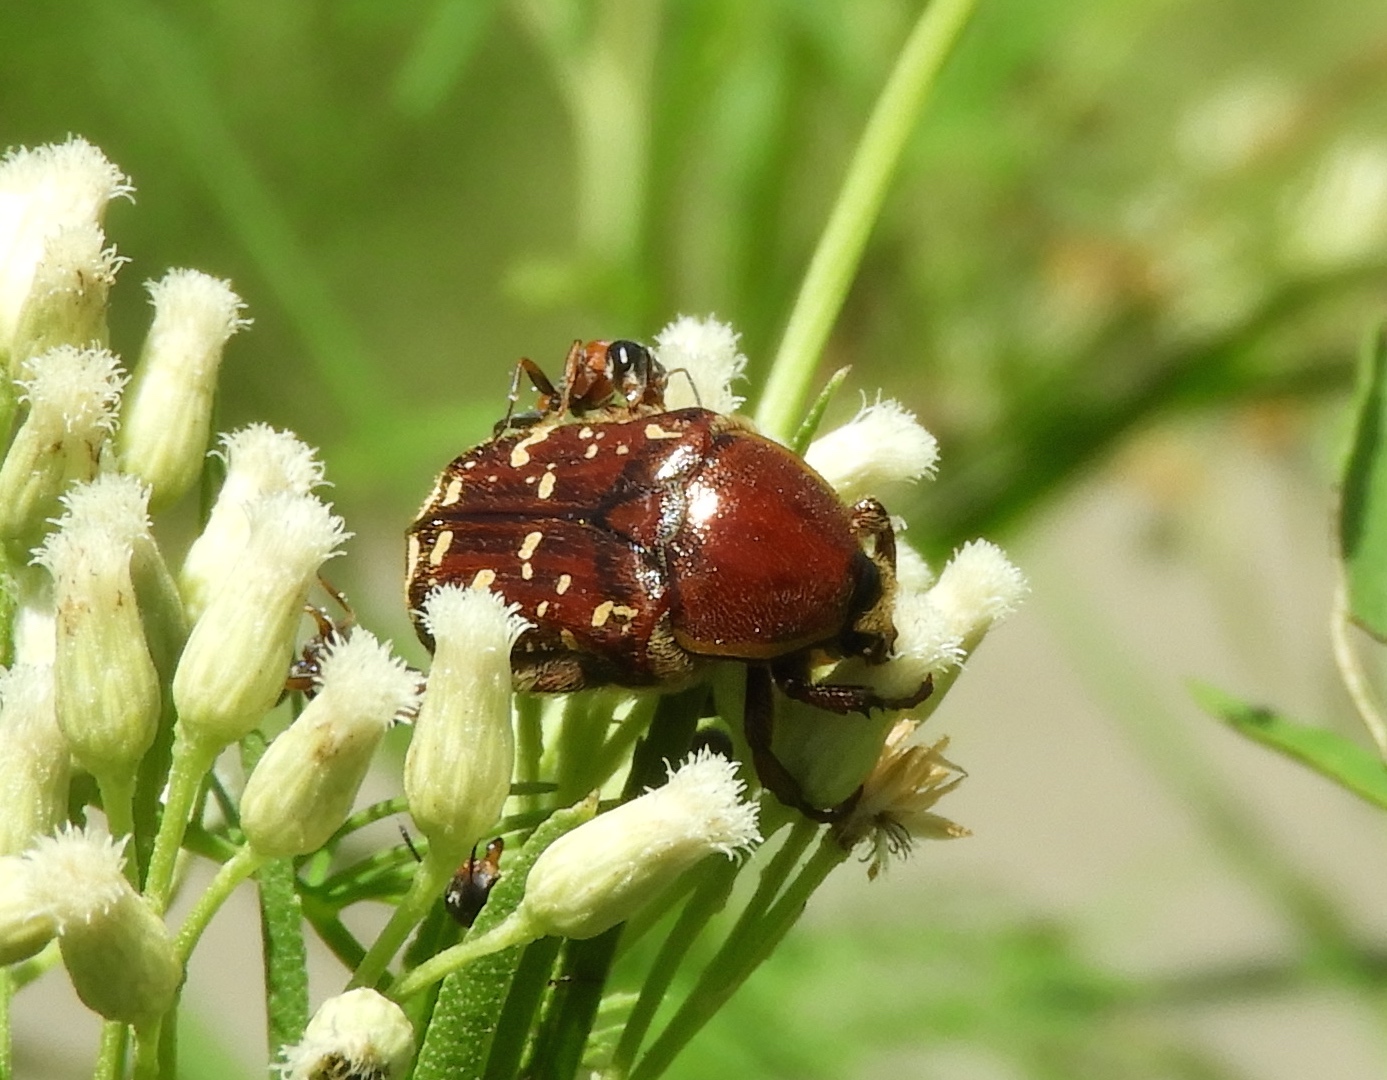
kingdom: Animalia
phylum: Arthropoda
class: Insecta
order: Coleoptera
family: Scarabaeidae
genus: Euphoria
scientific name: Euphoria leucographa
